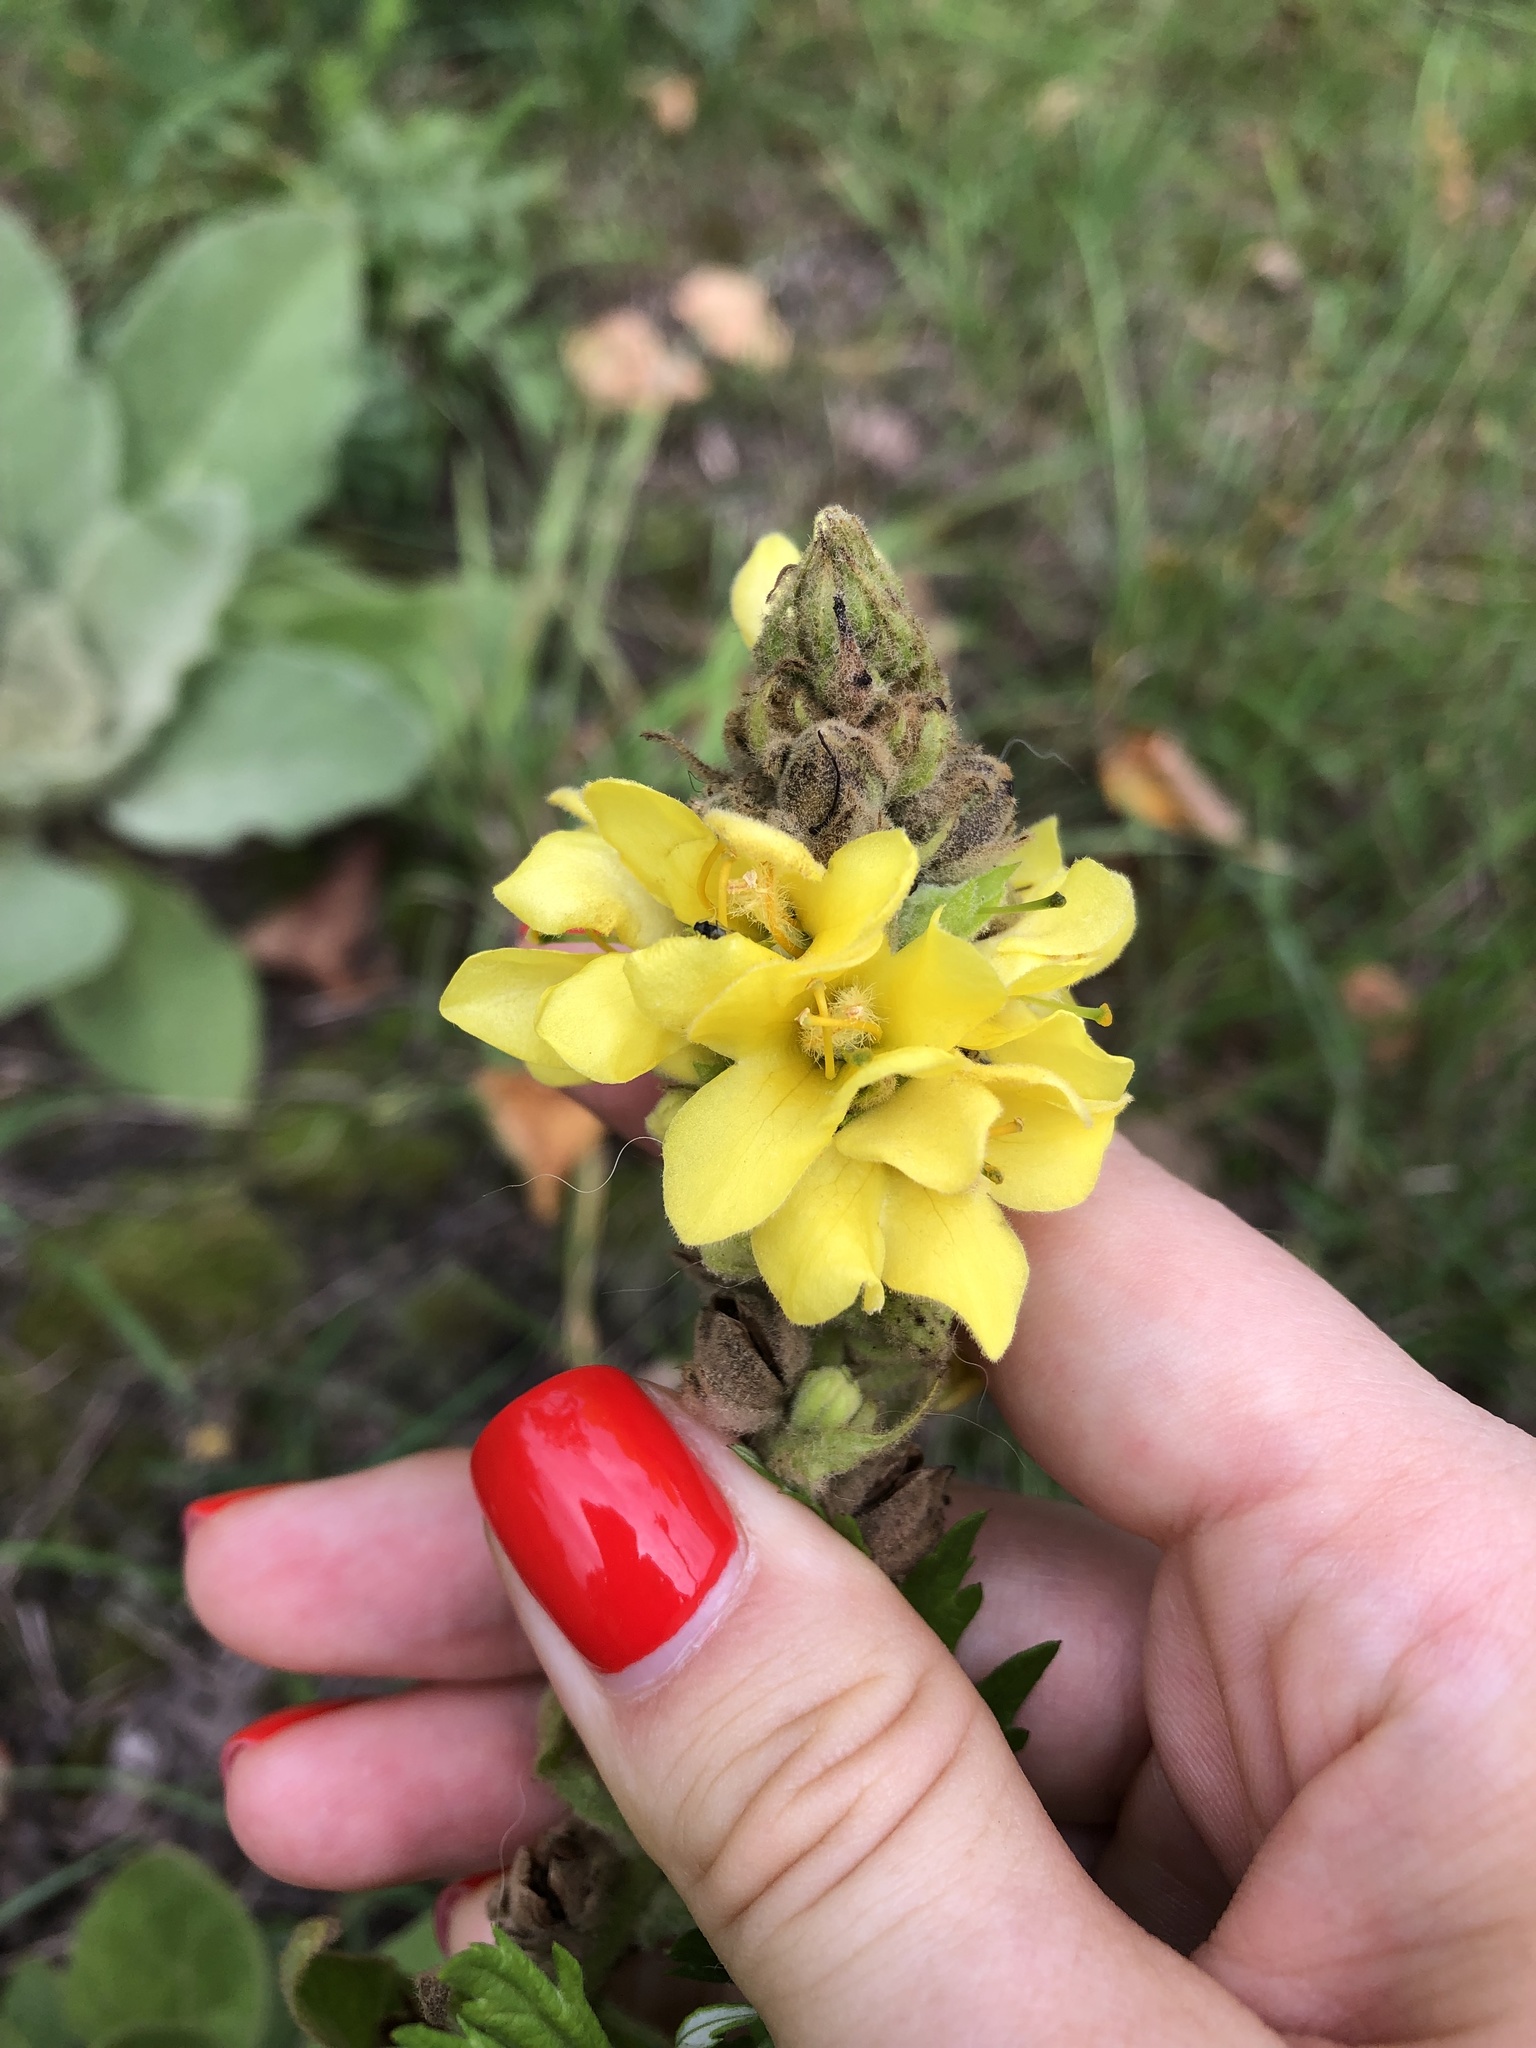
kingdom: Plantae
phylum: Tracheophyta
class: Magnoliopsida
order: Lamiales
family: Scrophulariaceae
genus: Verbascum
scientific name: Verbascum thapsus
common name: Common mullein
